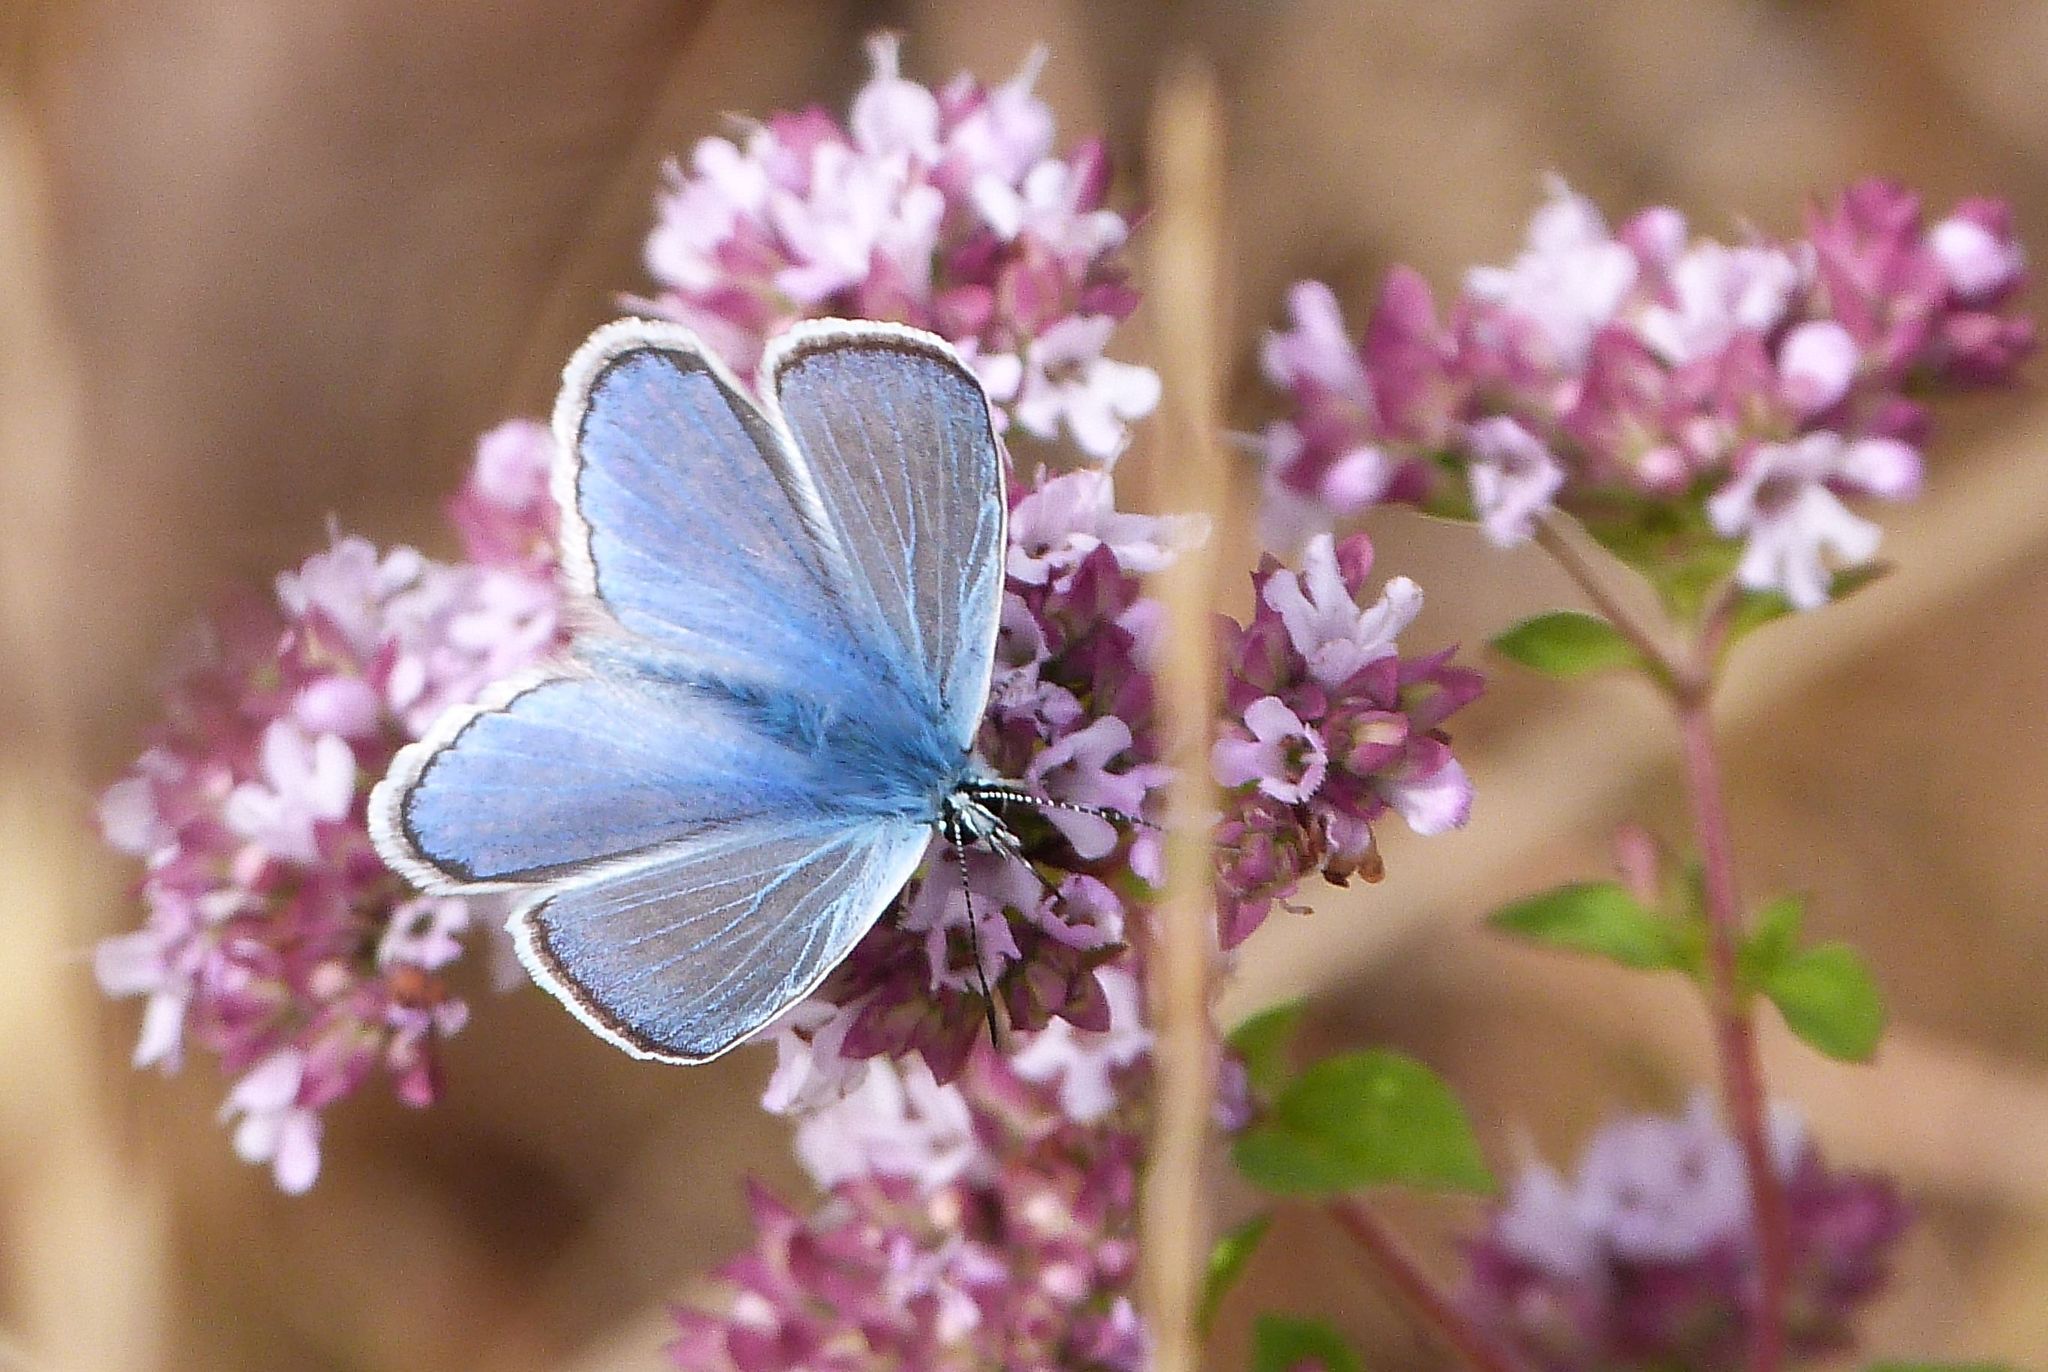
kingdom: Animalia
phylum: Arthropoda
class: Insecta
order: Lepidoptera
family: Lycaenidae
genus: Polyommatus
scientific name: Polyommatus icarus
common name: Common blue
